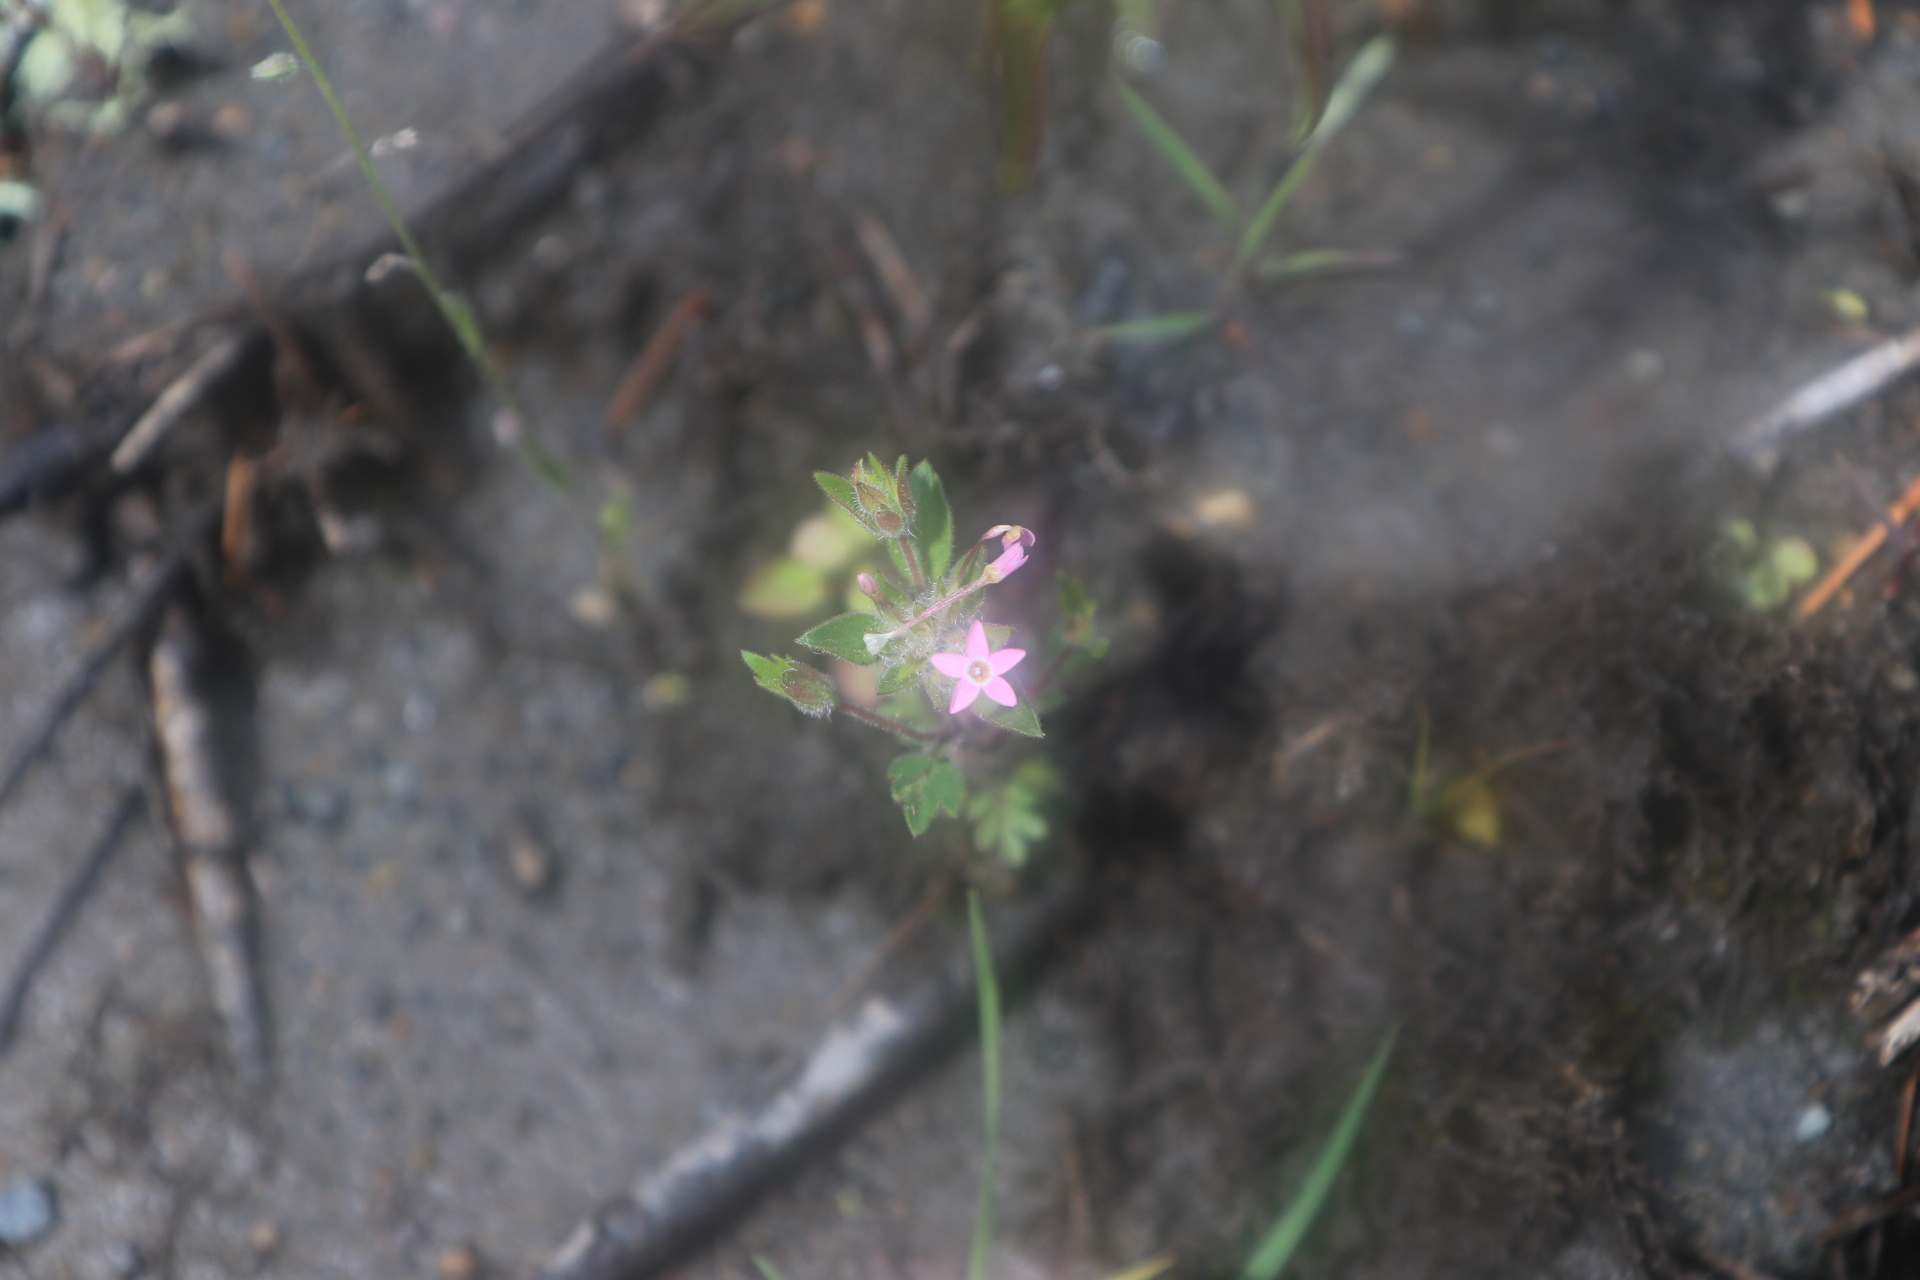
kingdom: Plantae
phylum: Tracheophyta
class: Magnoliopsida
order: Ericales
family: Polemoniaceae
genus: Collomia
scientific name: Collomia heterophylla
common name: Variable-leaved collomia
